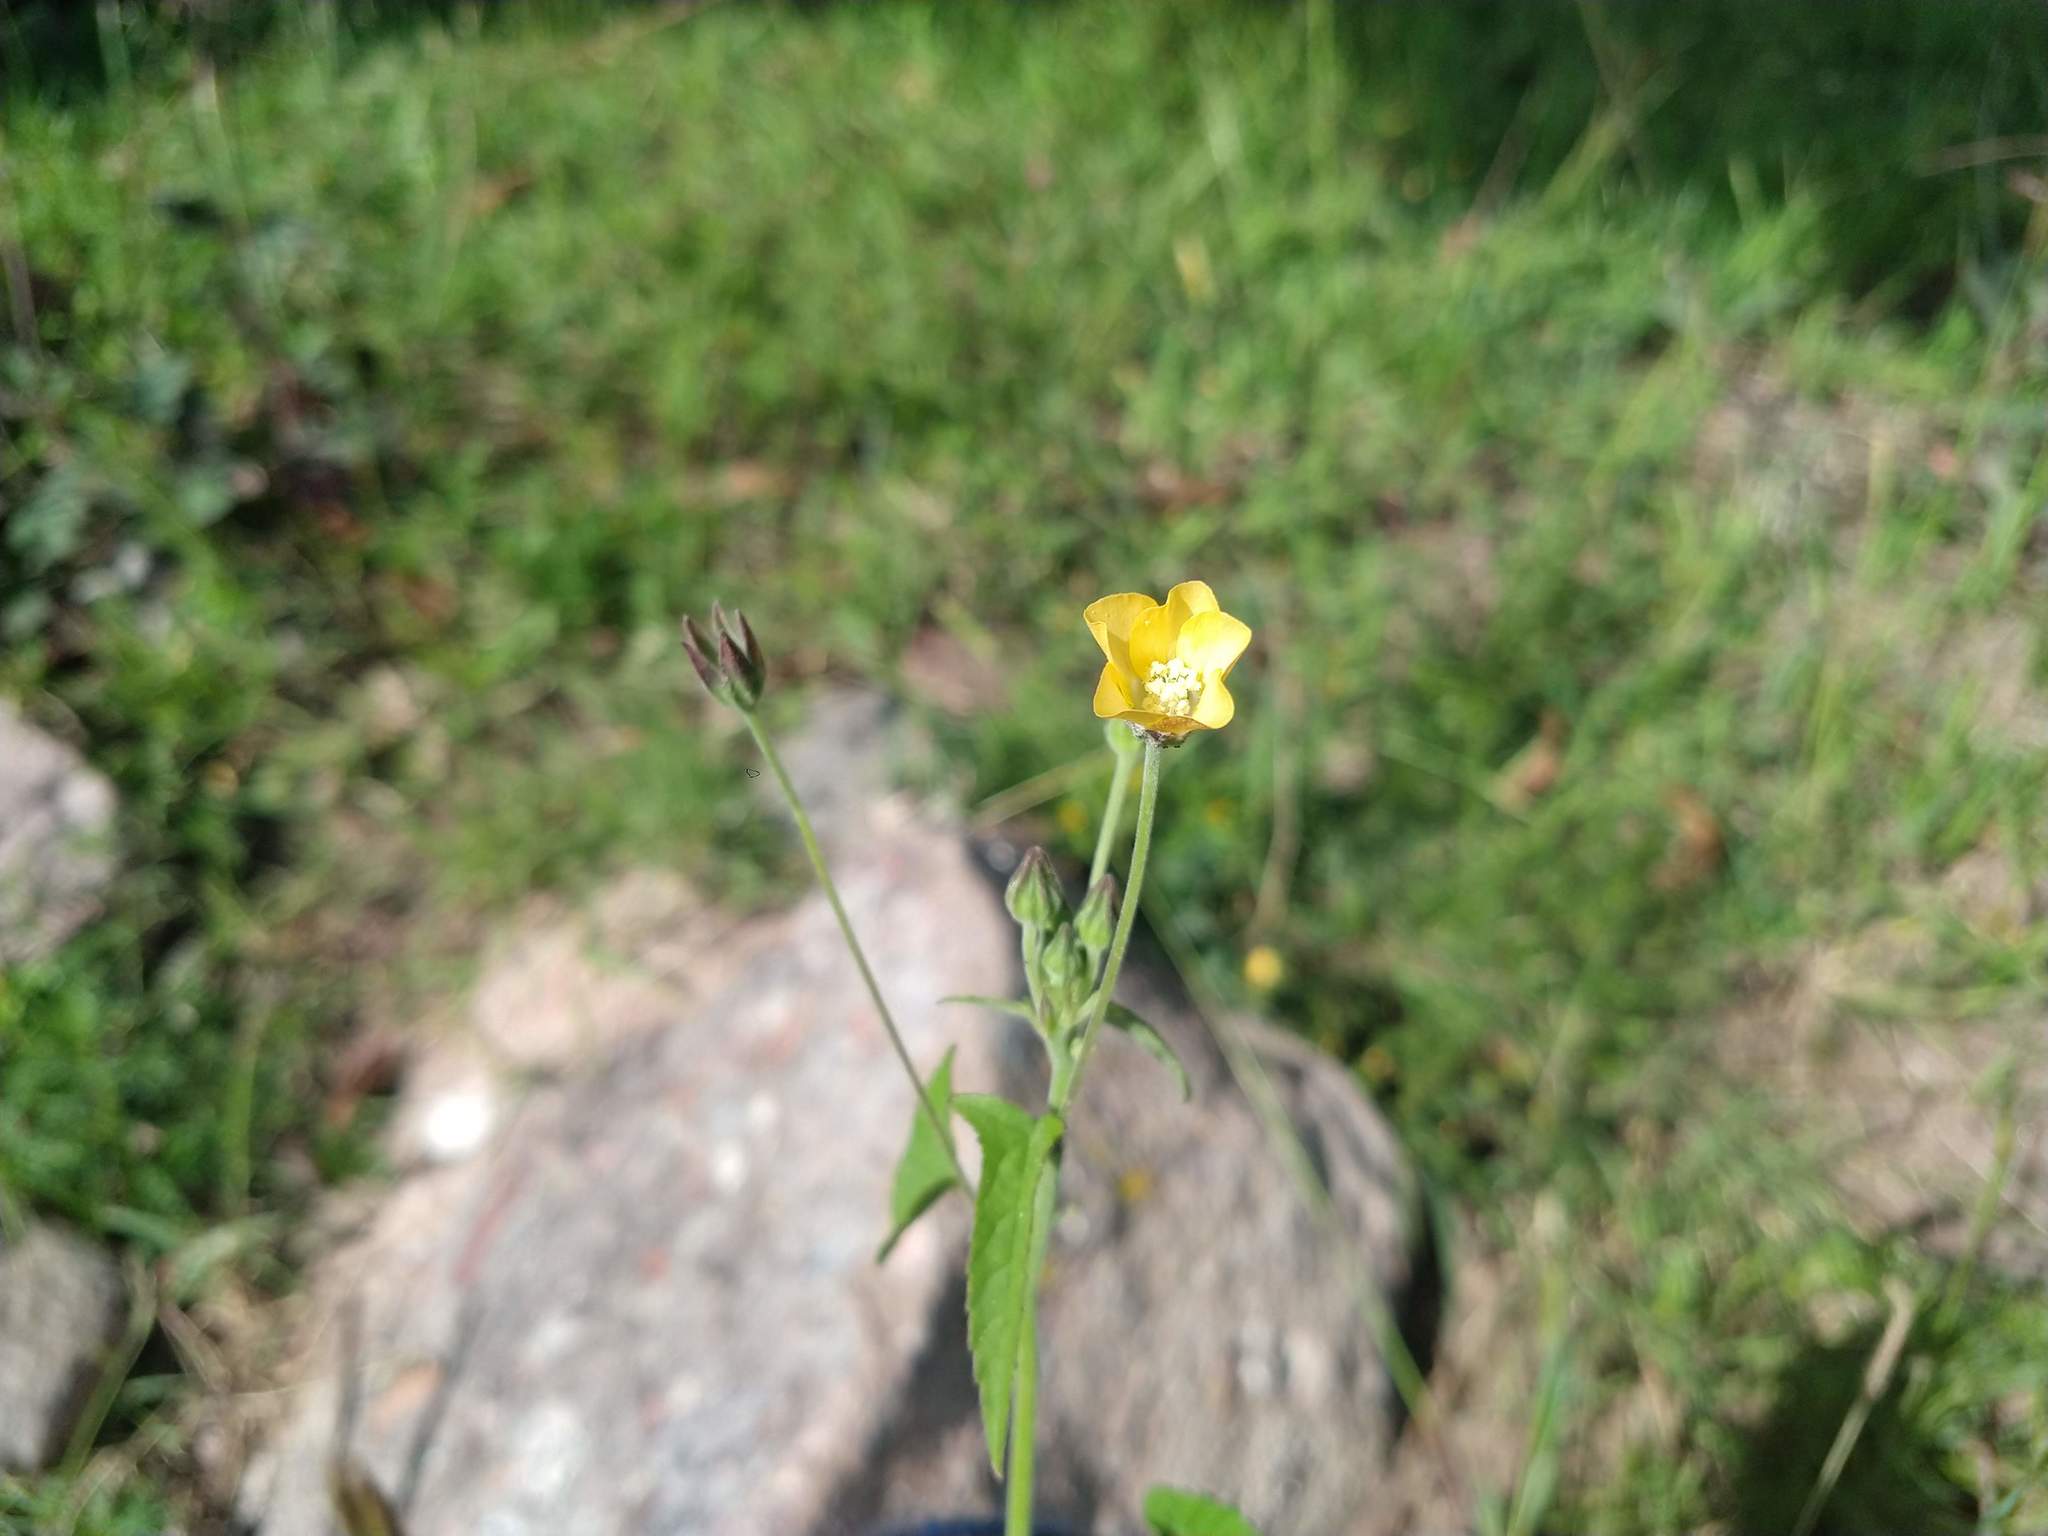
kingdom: Plantae
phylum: Tracheophyta
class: Magnoliopsida
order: Malvales
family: Malvaceae
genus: Anoda
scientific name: Anoda crenatiflora
